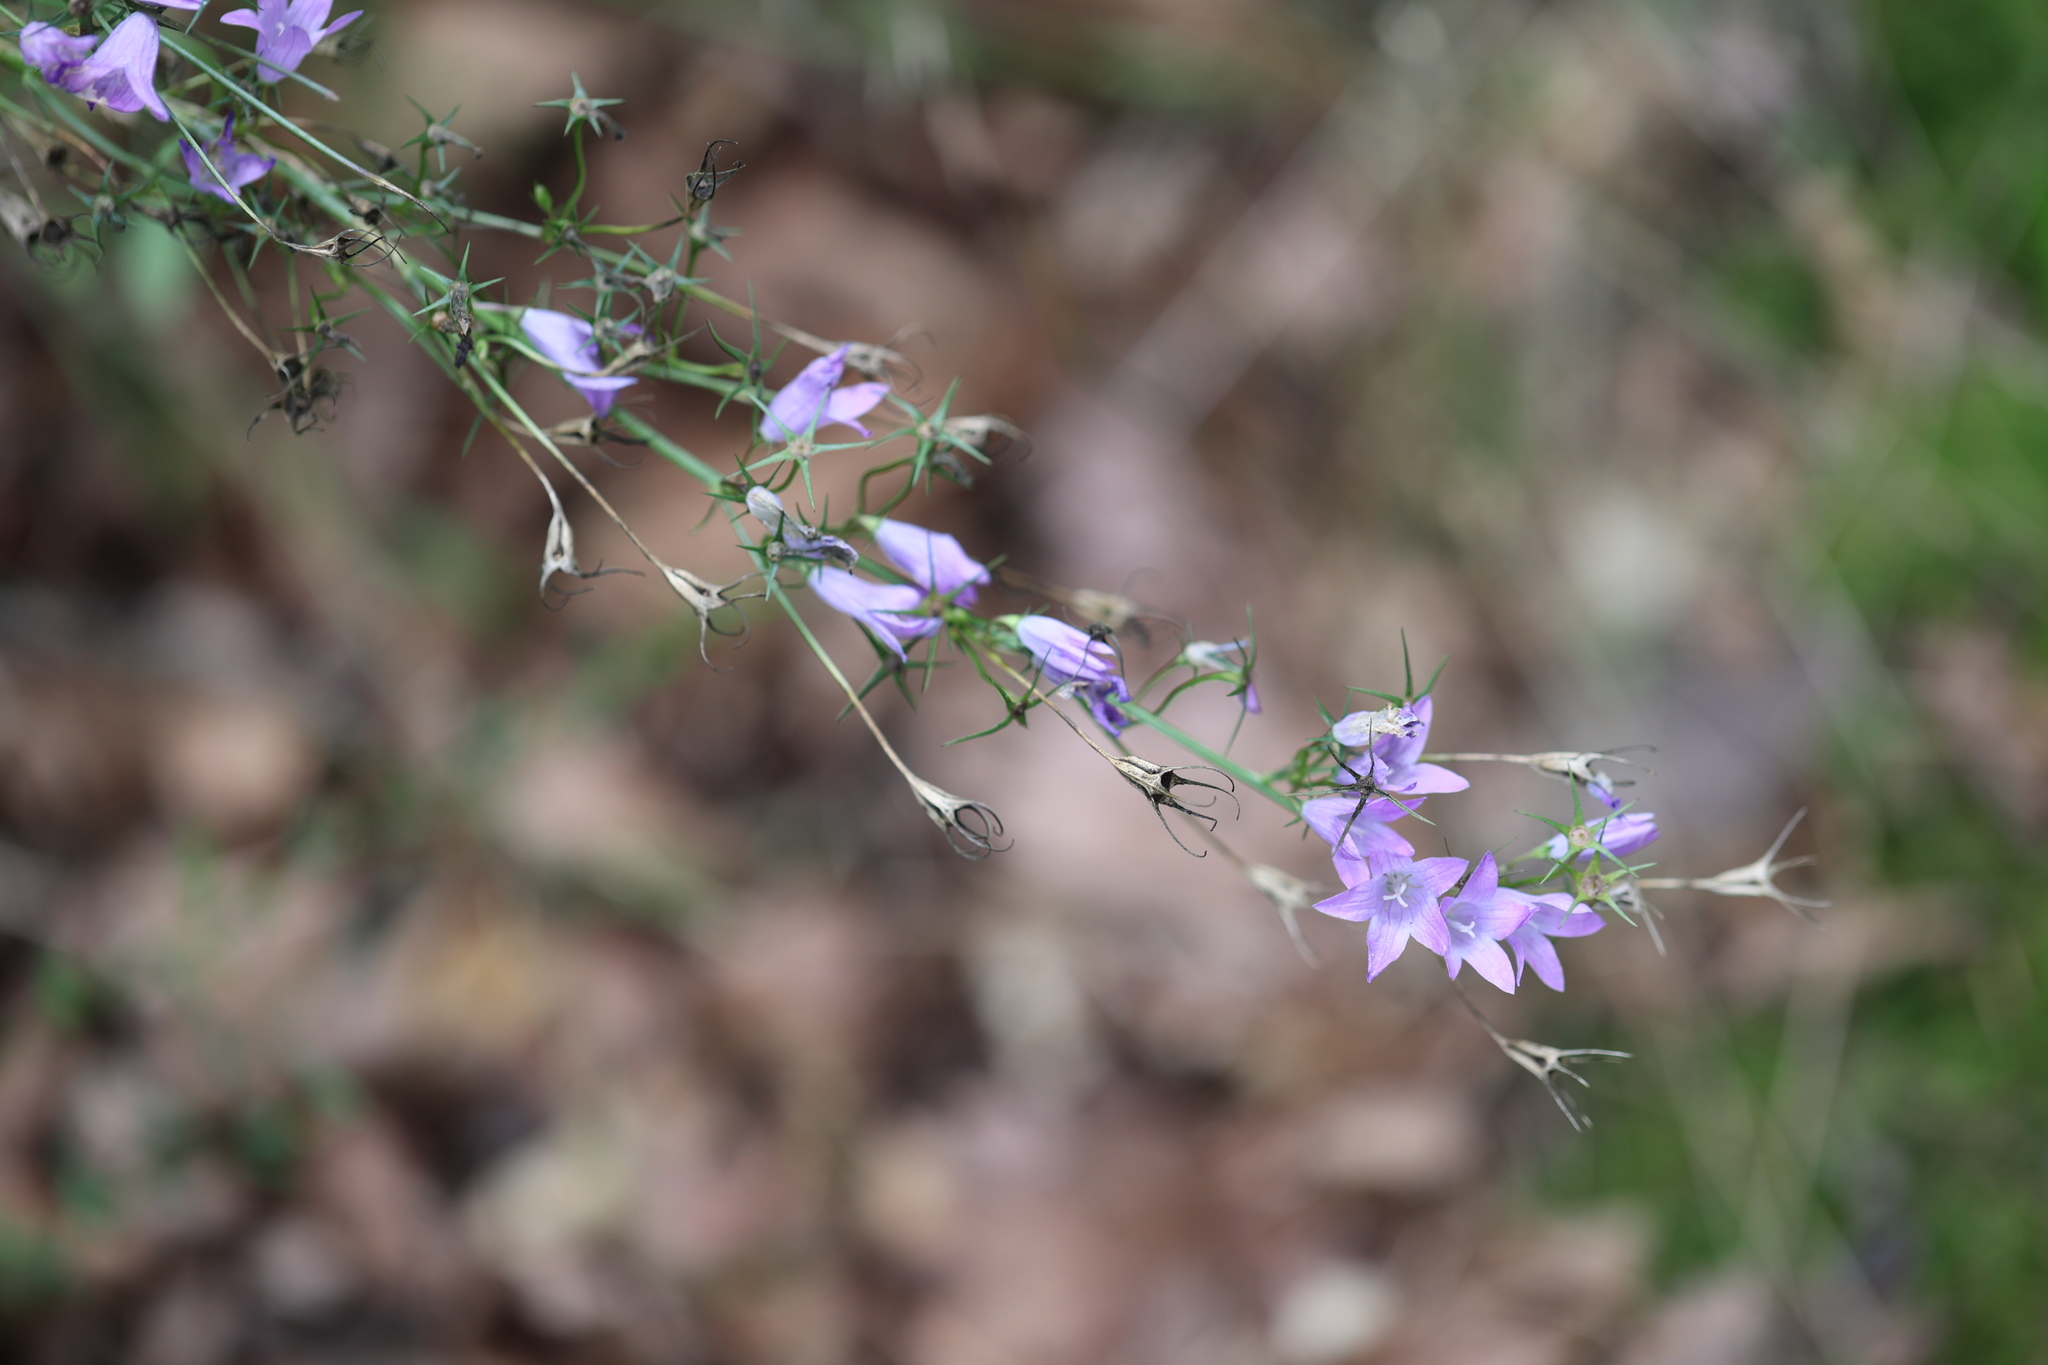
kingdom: Plantae
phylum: Tracheophyta
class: Magnoliopsida
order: Asterales
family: Campanulaceae
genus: Campanula
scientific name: Campanula rapunculus
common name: Rampion bellflower
